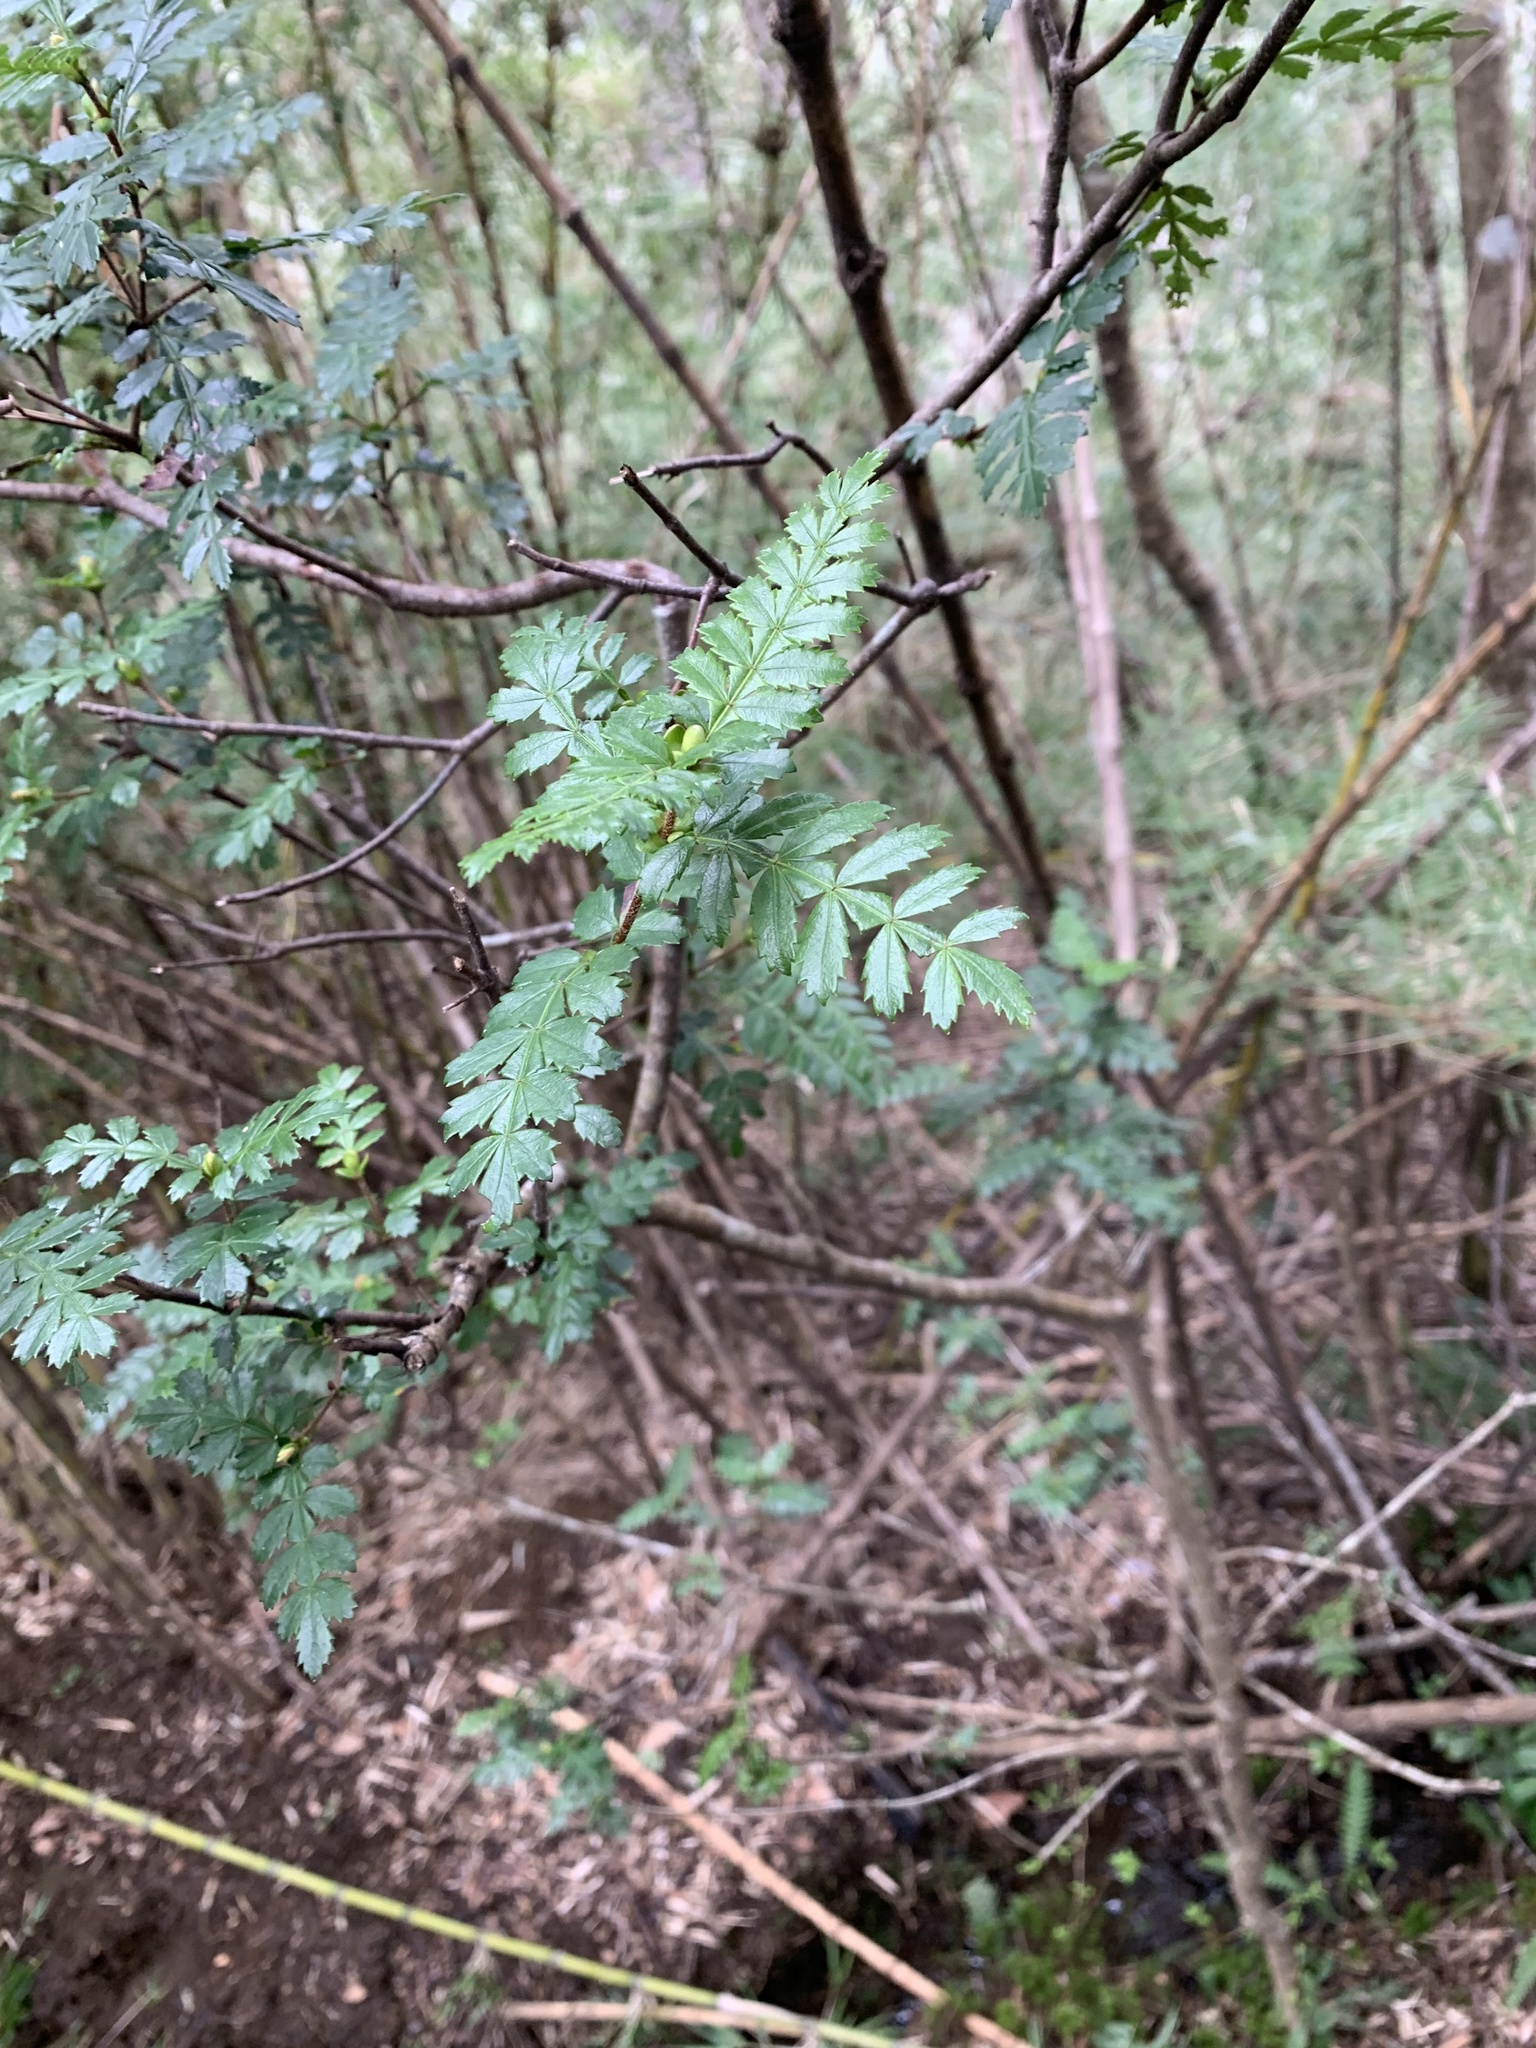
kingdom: Plantae
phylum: Tracheophyta
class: Magnoliopsida
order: Oxalidales
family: Cunoniaceae
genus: Weinmannia
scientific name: Weinmannia trichosperma
